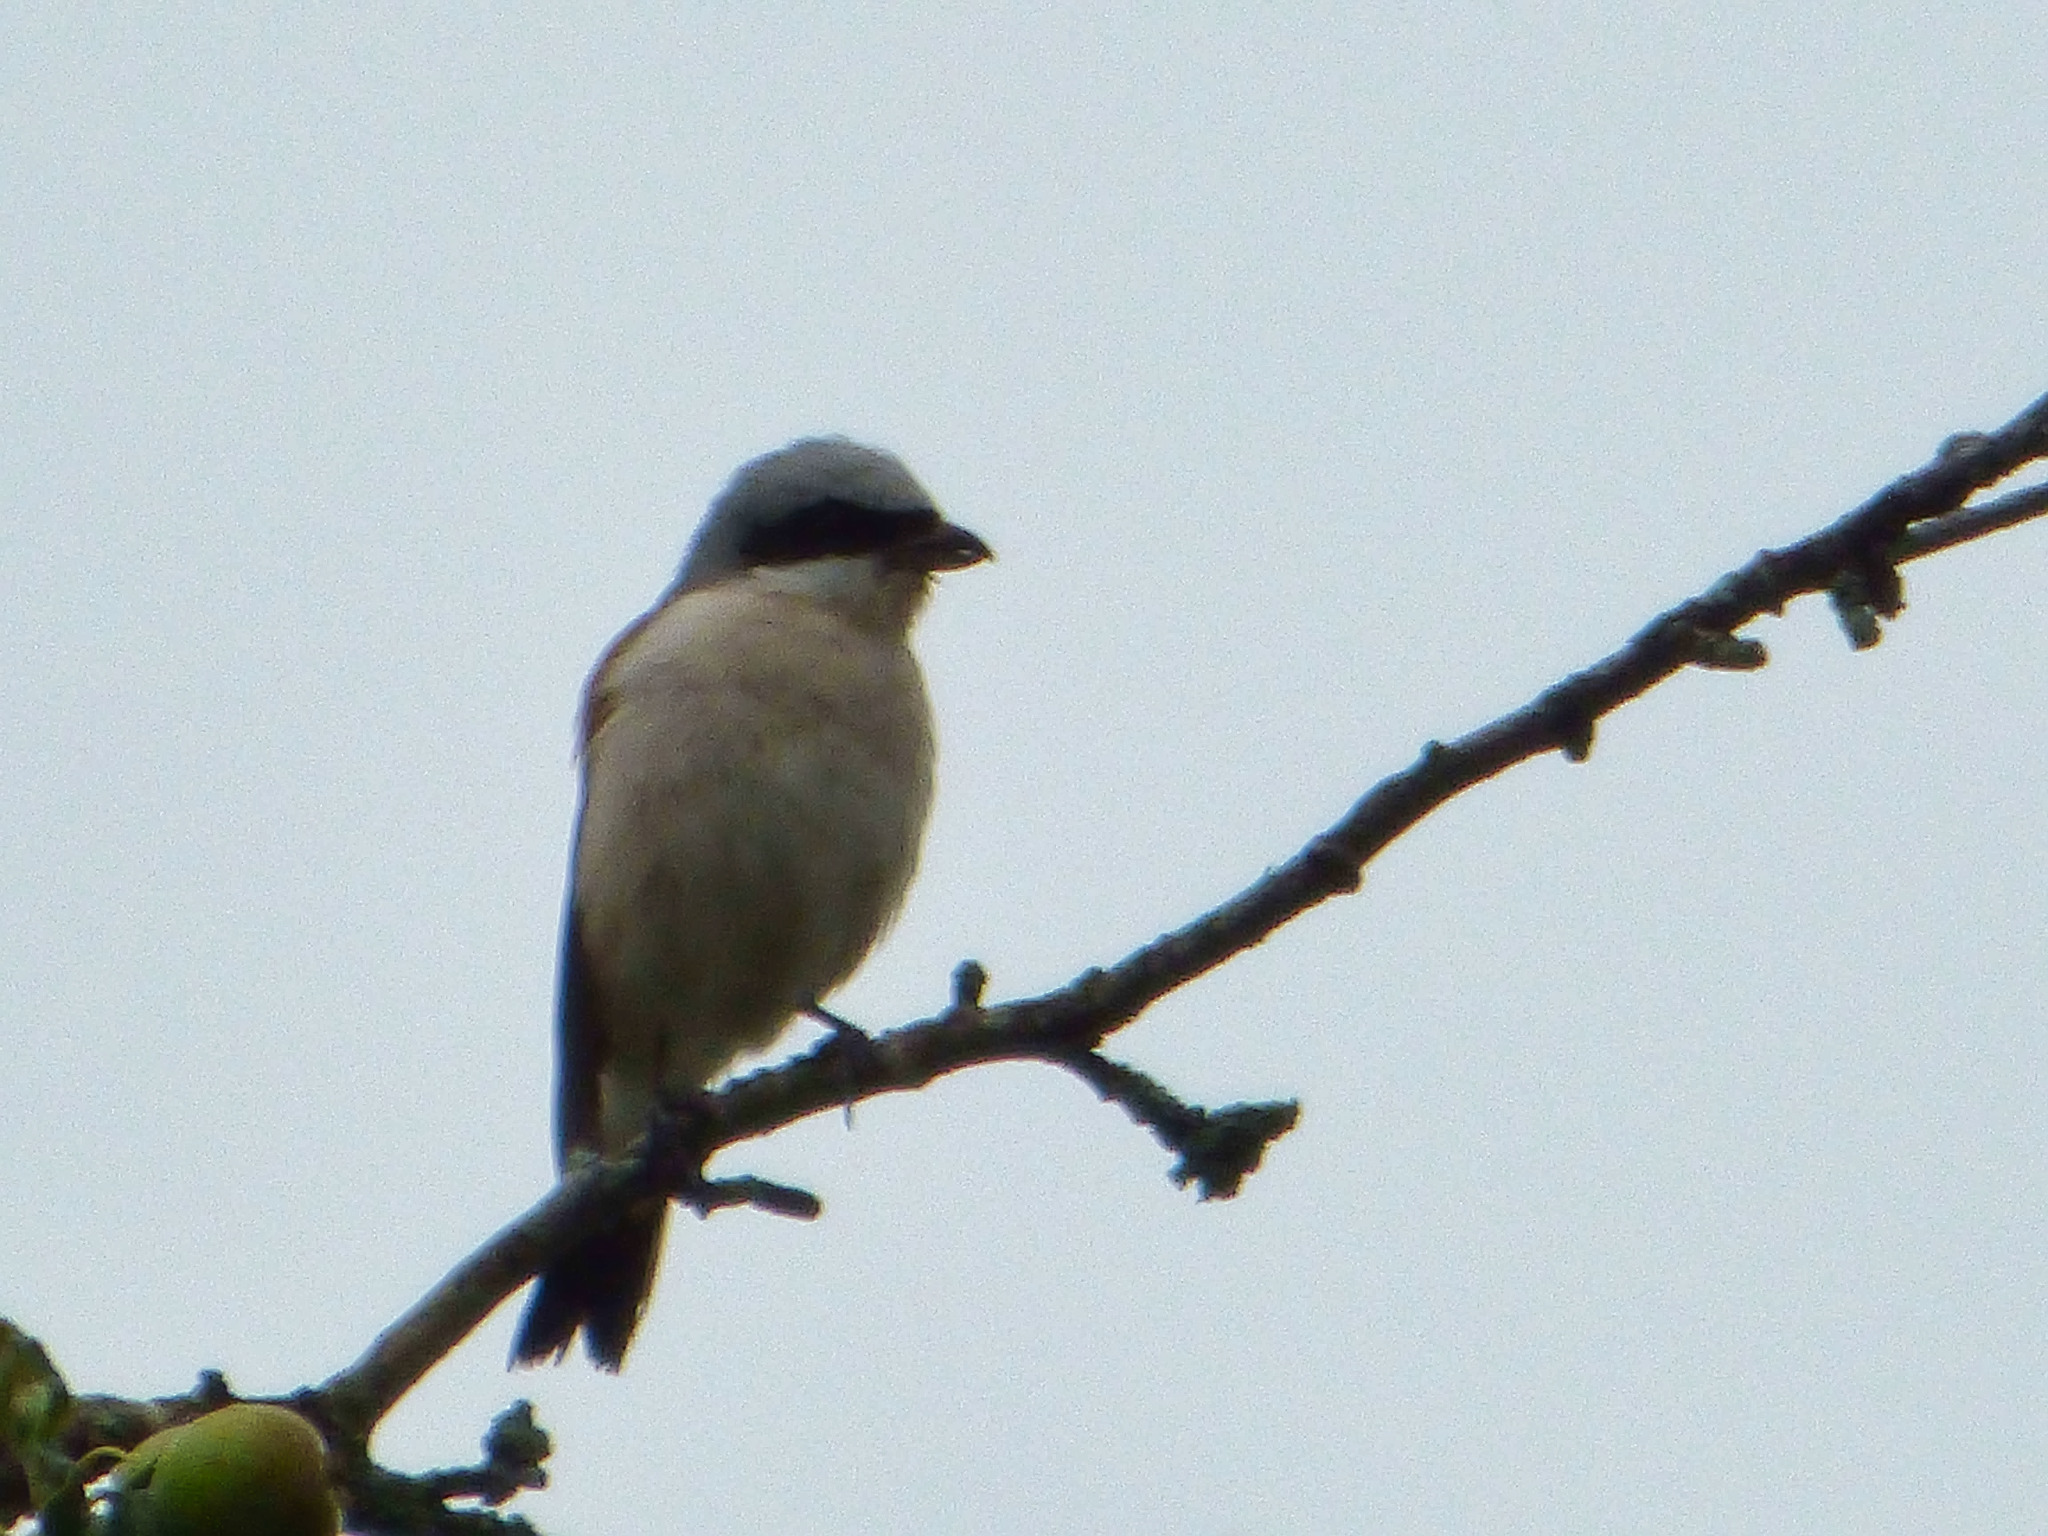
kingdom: Animalia
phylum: Chordata
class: Aves
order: Passeriformes
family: Laniidae
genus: Lanius
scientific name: Lanius collurio
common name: Red-backed shrike
